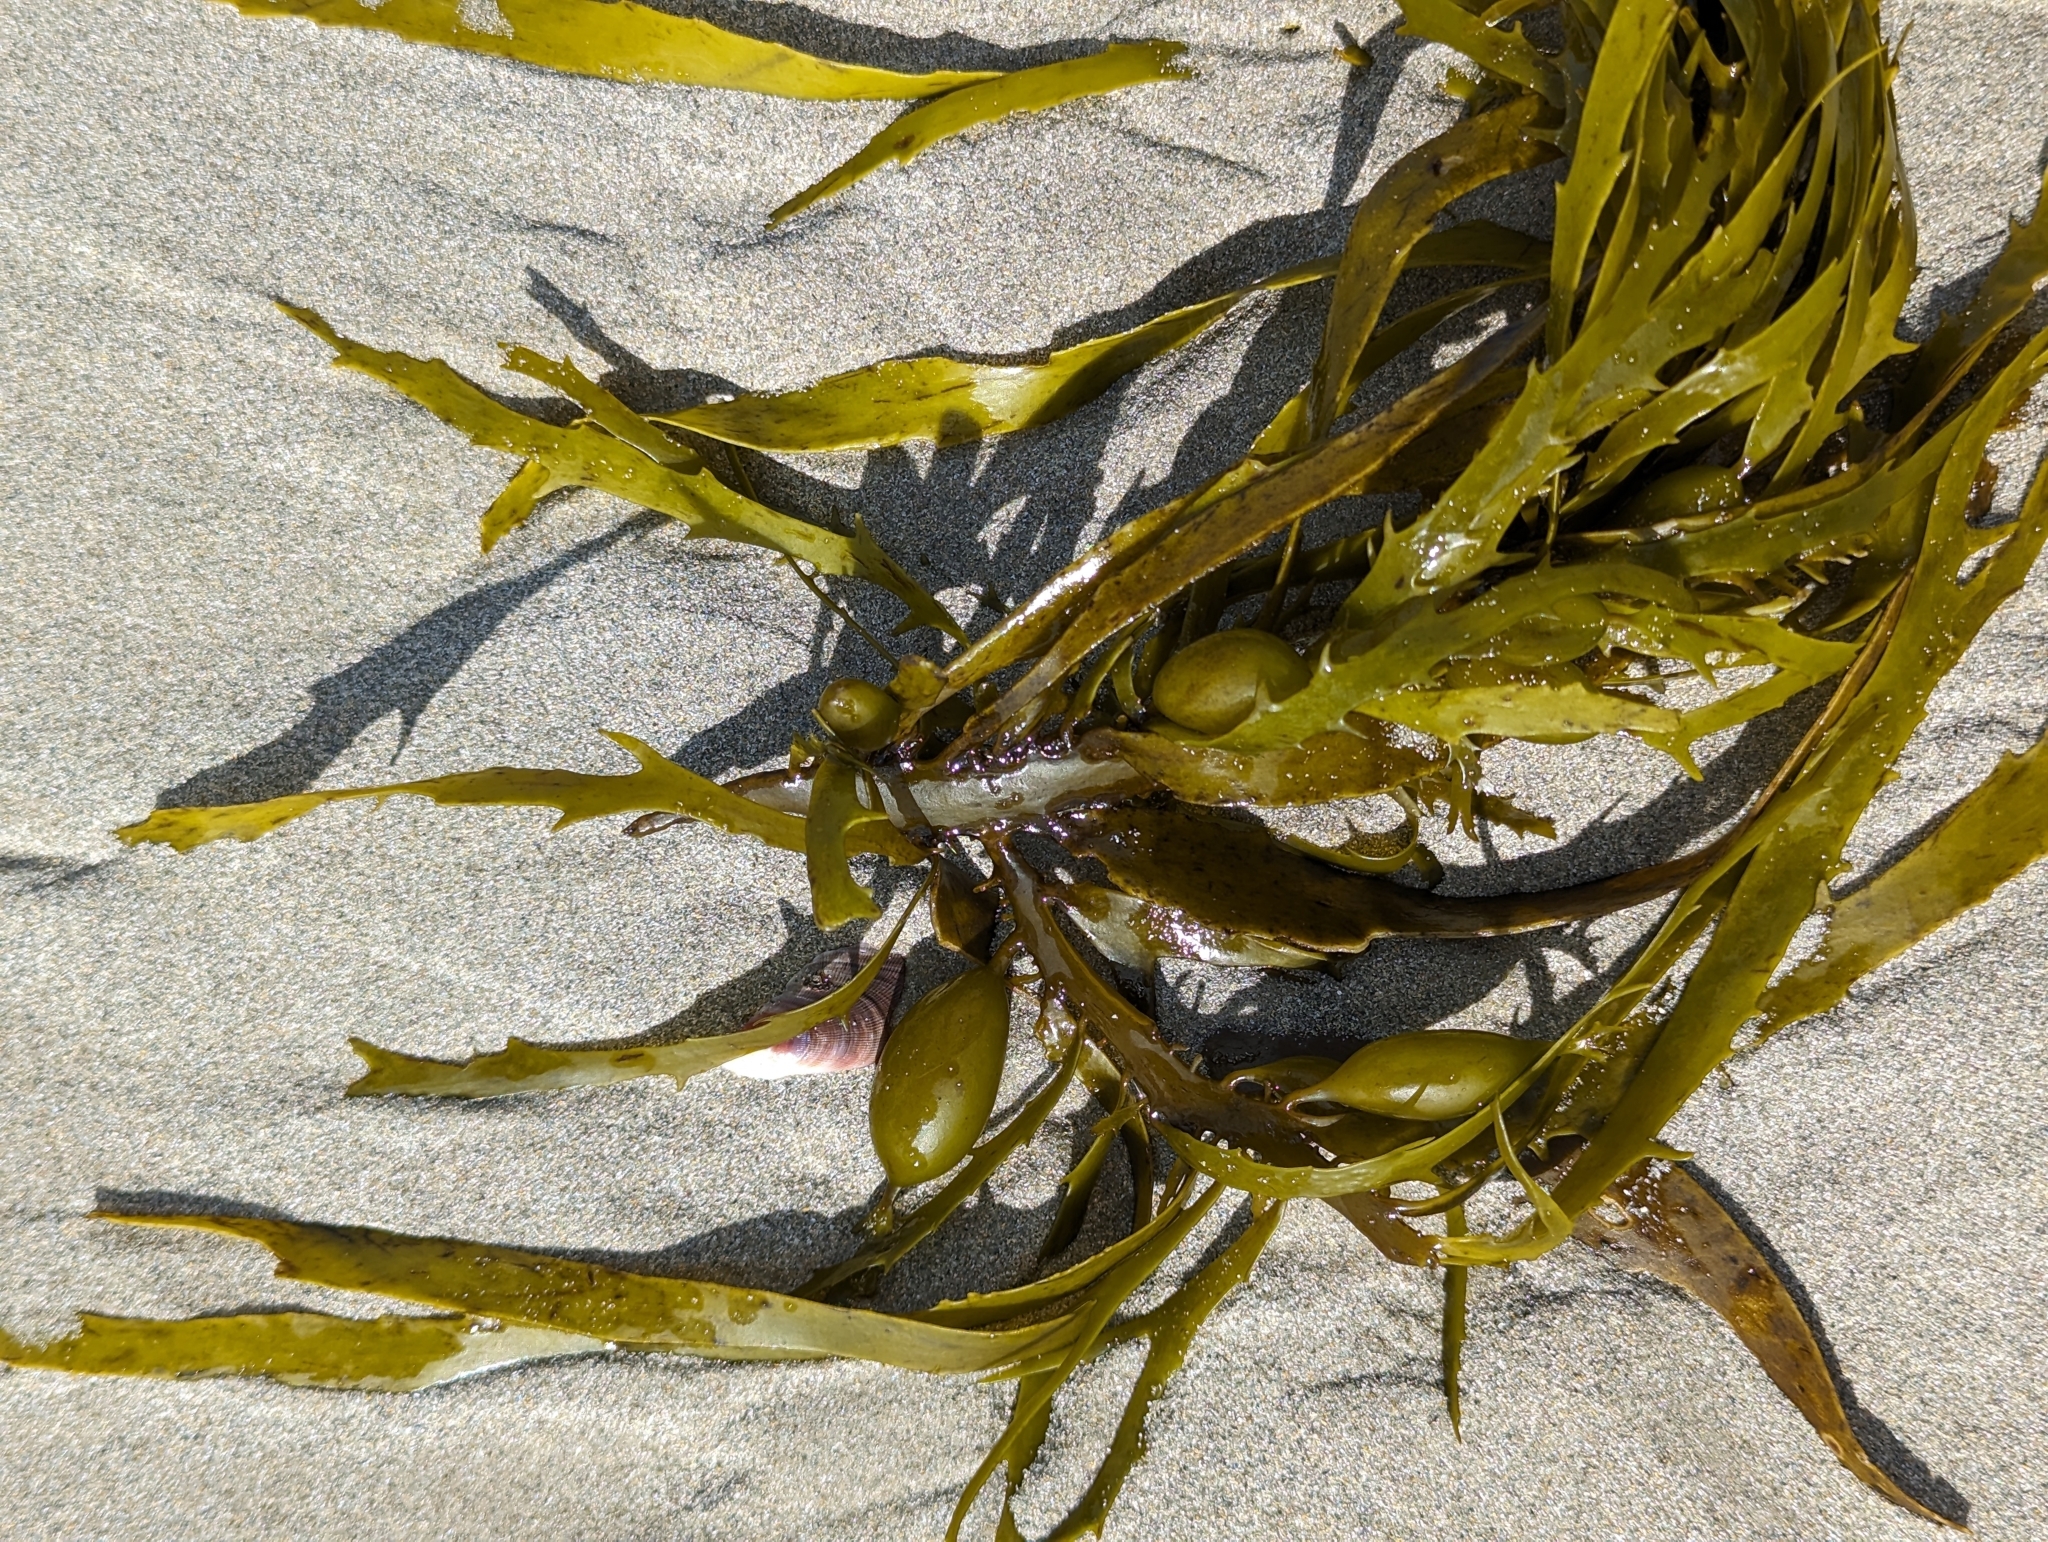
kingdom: Chromista
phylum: Ochrophyta
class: Phaeophyceae
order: Fucales
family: Seirococcaceae
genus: Phyllospora
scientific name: Phyllospora
